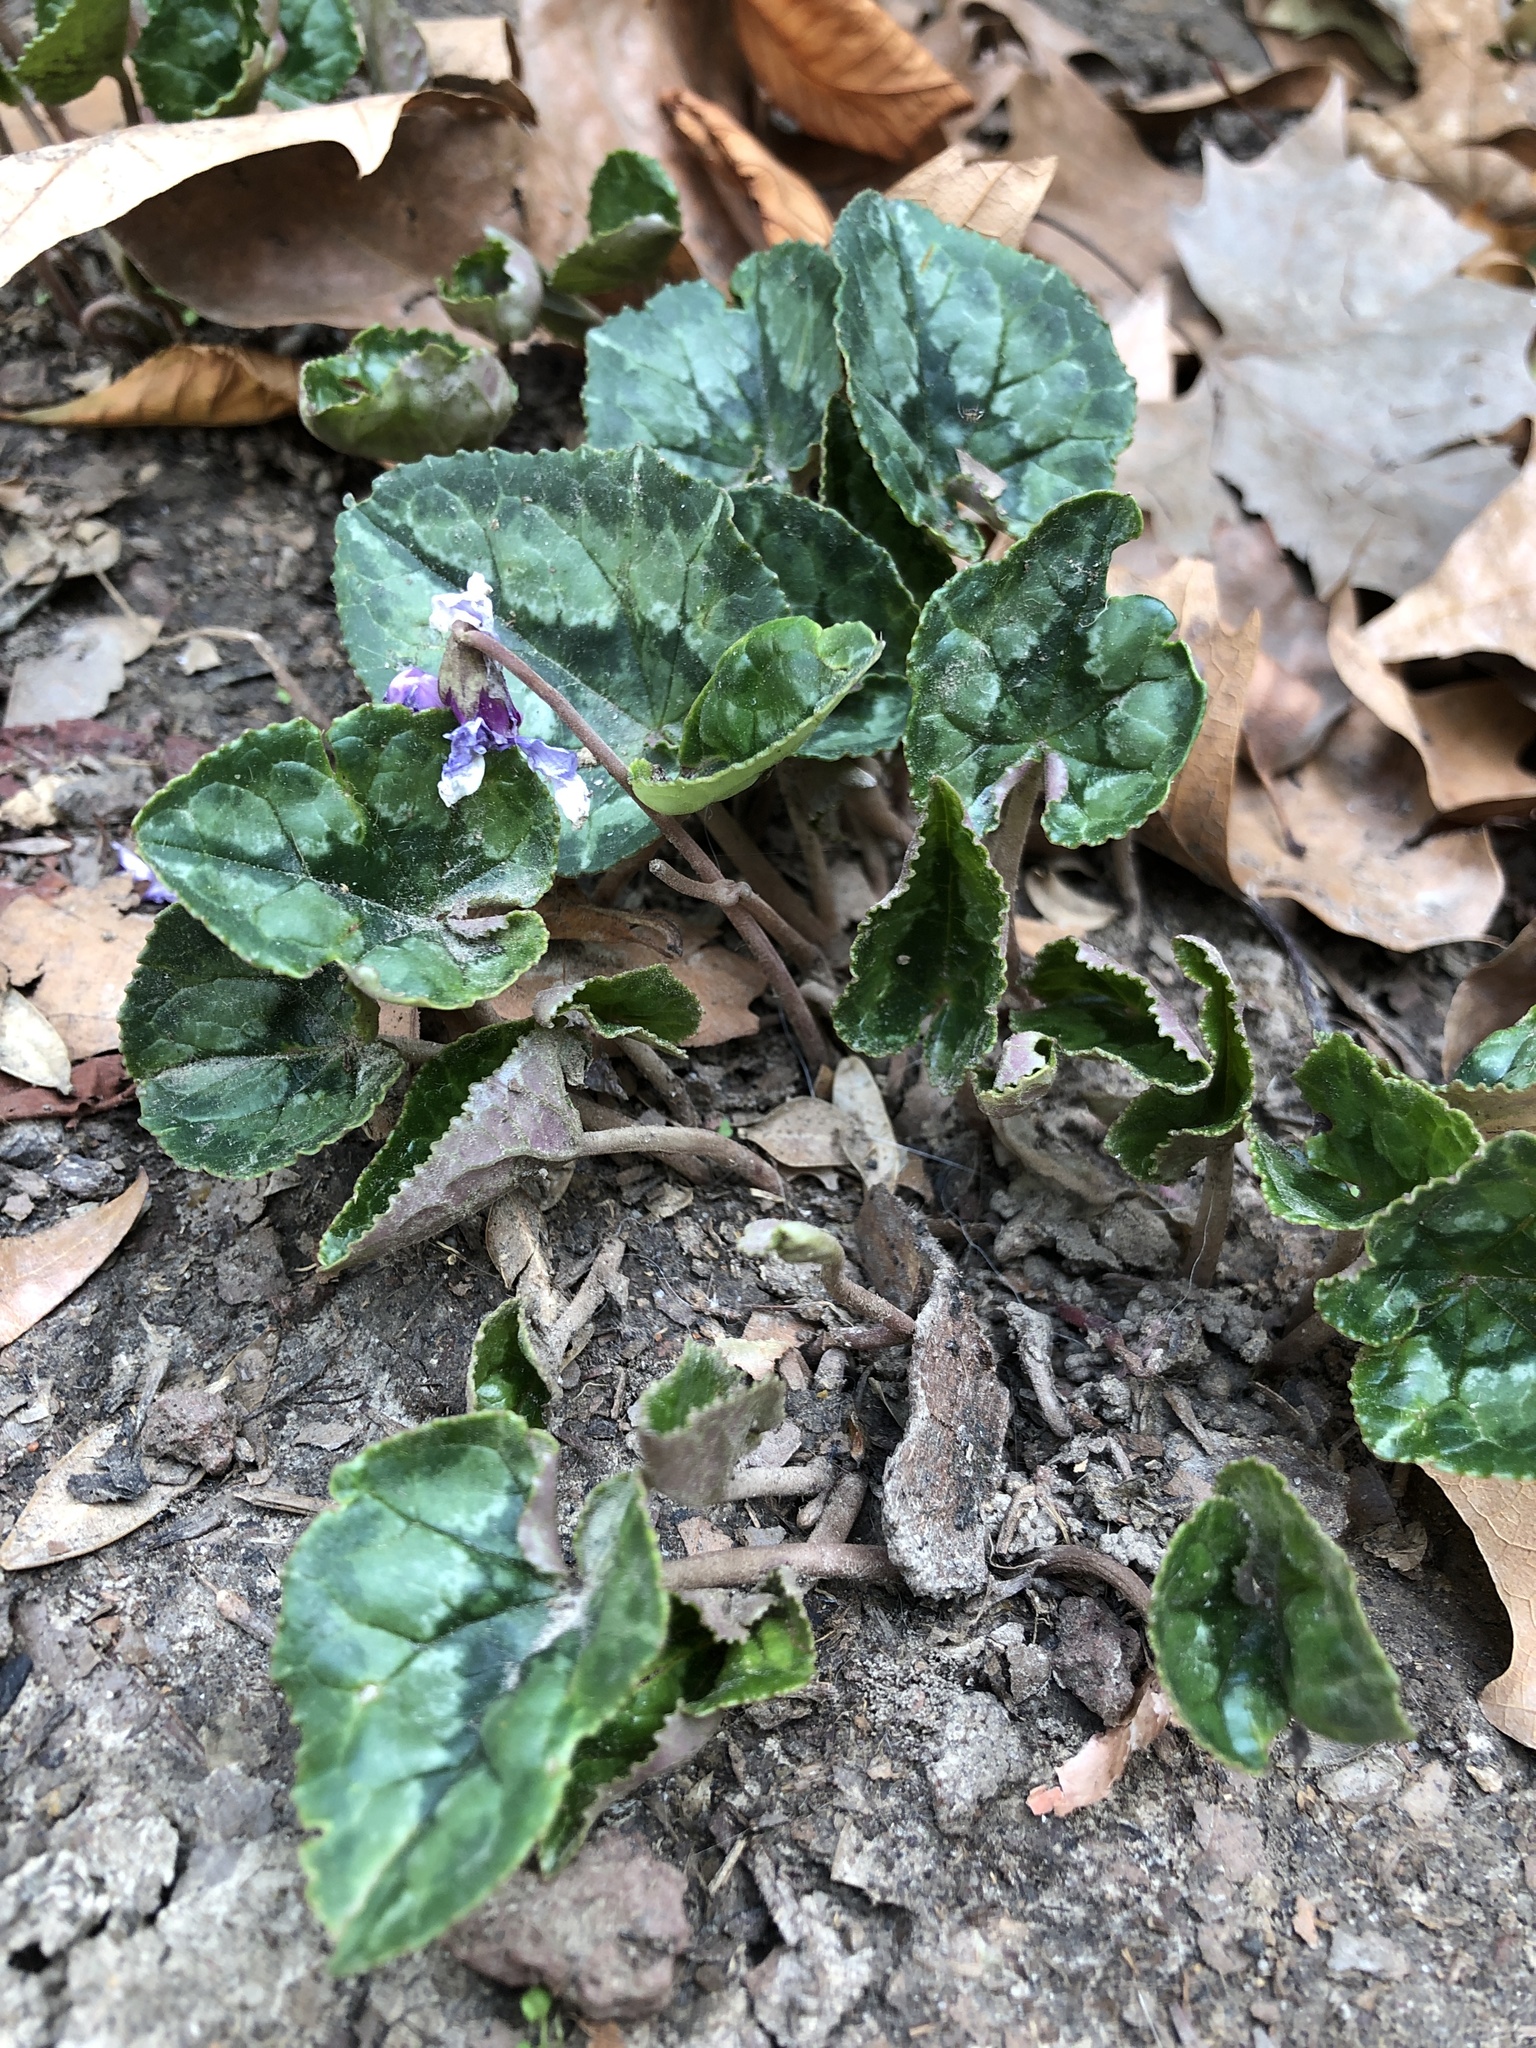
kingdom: Plantae
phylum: Tracheophyta
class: Magnoliopsida
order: Ericales
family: Primulaceae
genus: Cyclamen
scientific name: Cyclamen hederifolium
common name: Sowbread
